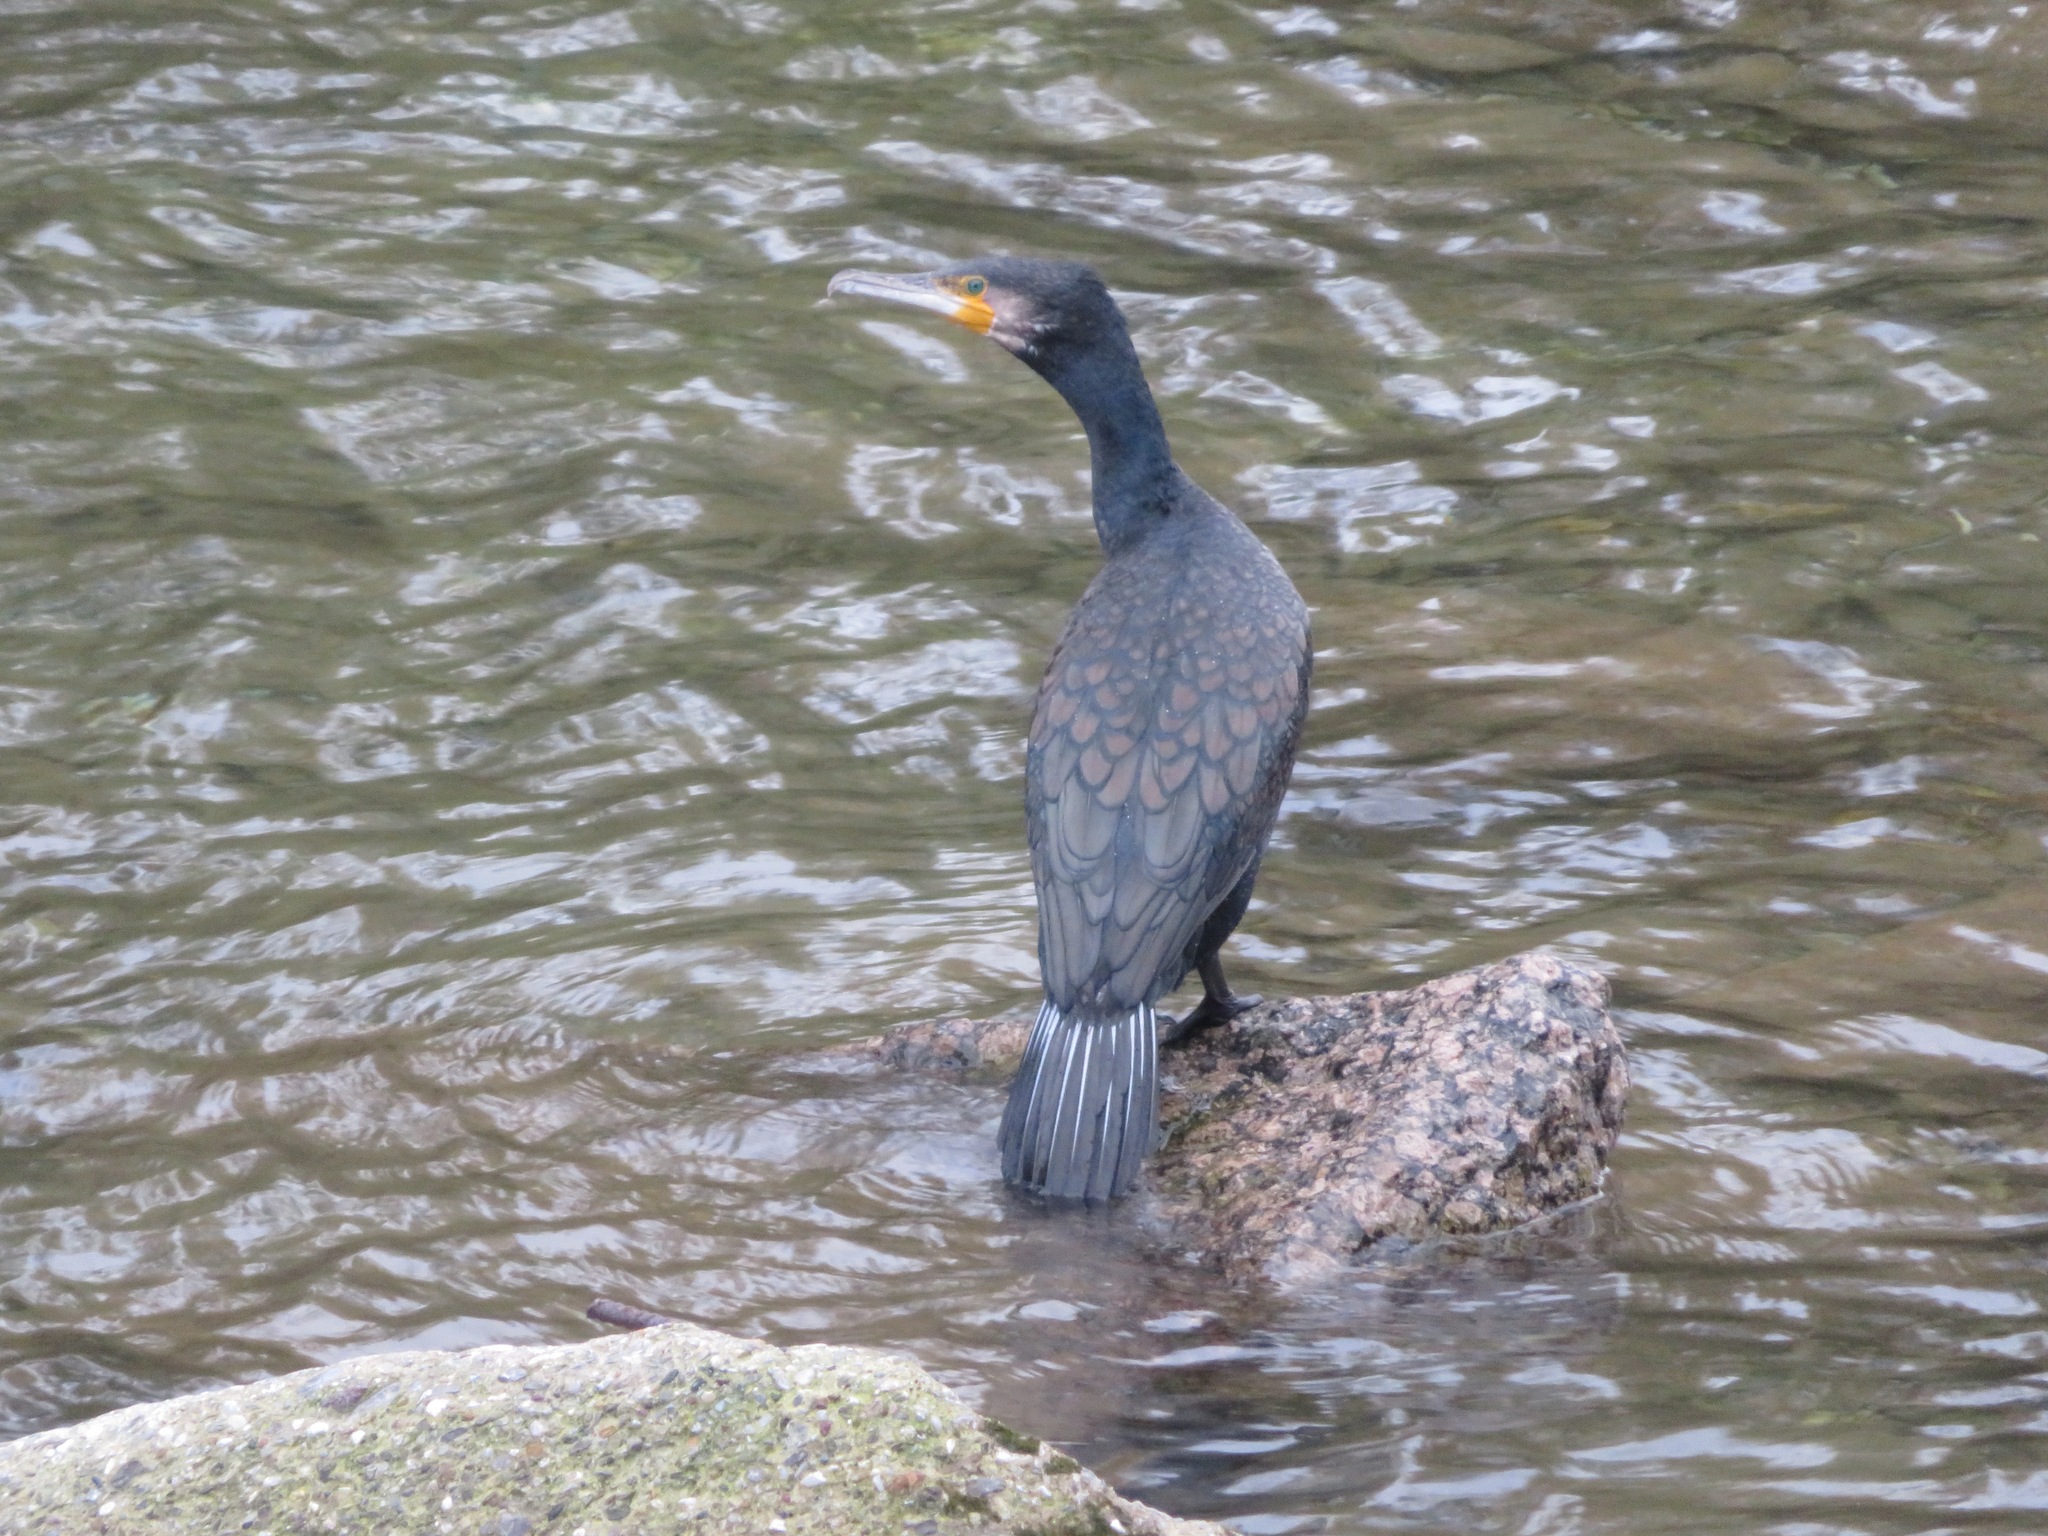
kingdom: Animalia
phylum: Chordata
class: Aves
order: Suliformes
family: Phalacrocoracidae
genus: Phalacrocorax
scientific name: Phalacrocorax carbo
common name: Great cormorant
